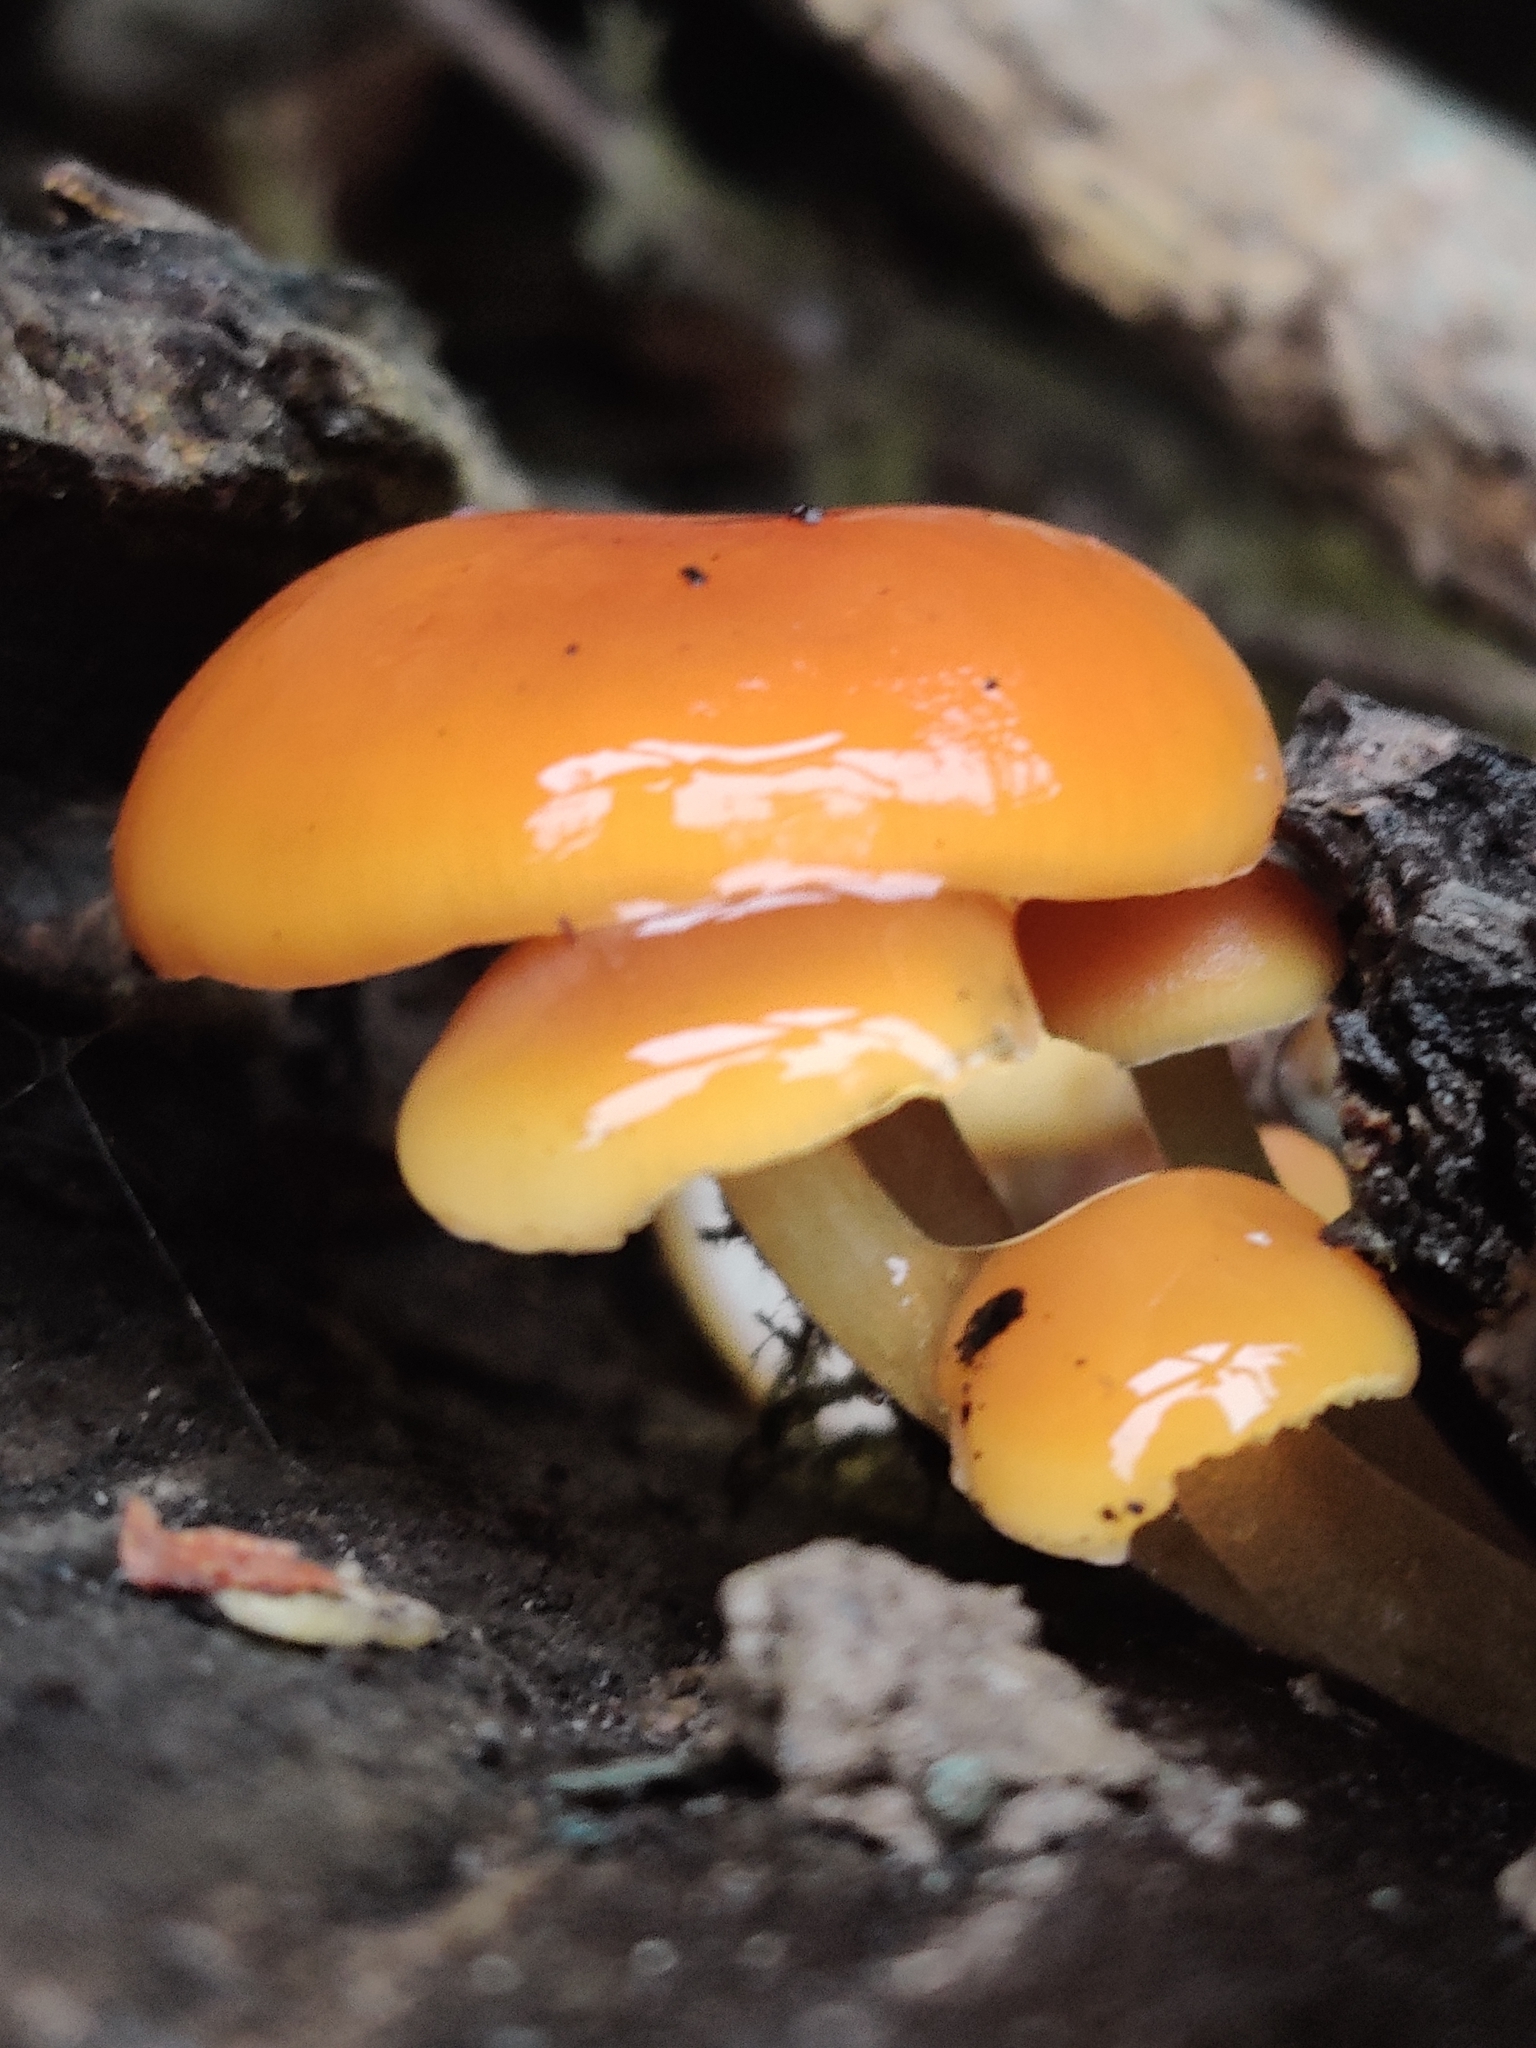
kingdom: Fungi
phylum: Basidiomycota
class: Agaricomycetes
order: Agaricales
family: Physalacriaceae
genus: Flammulina
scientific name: Flammulina
